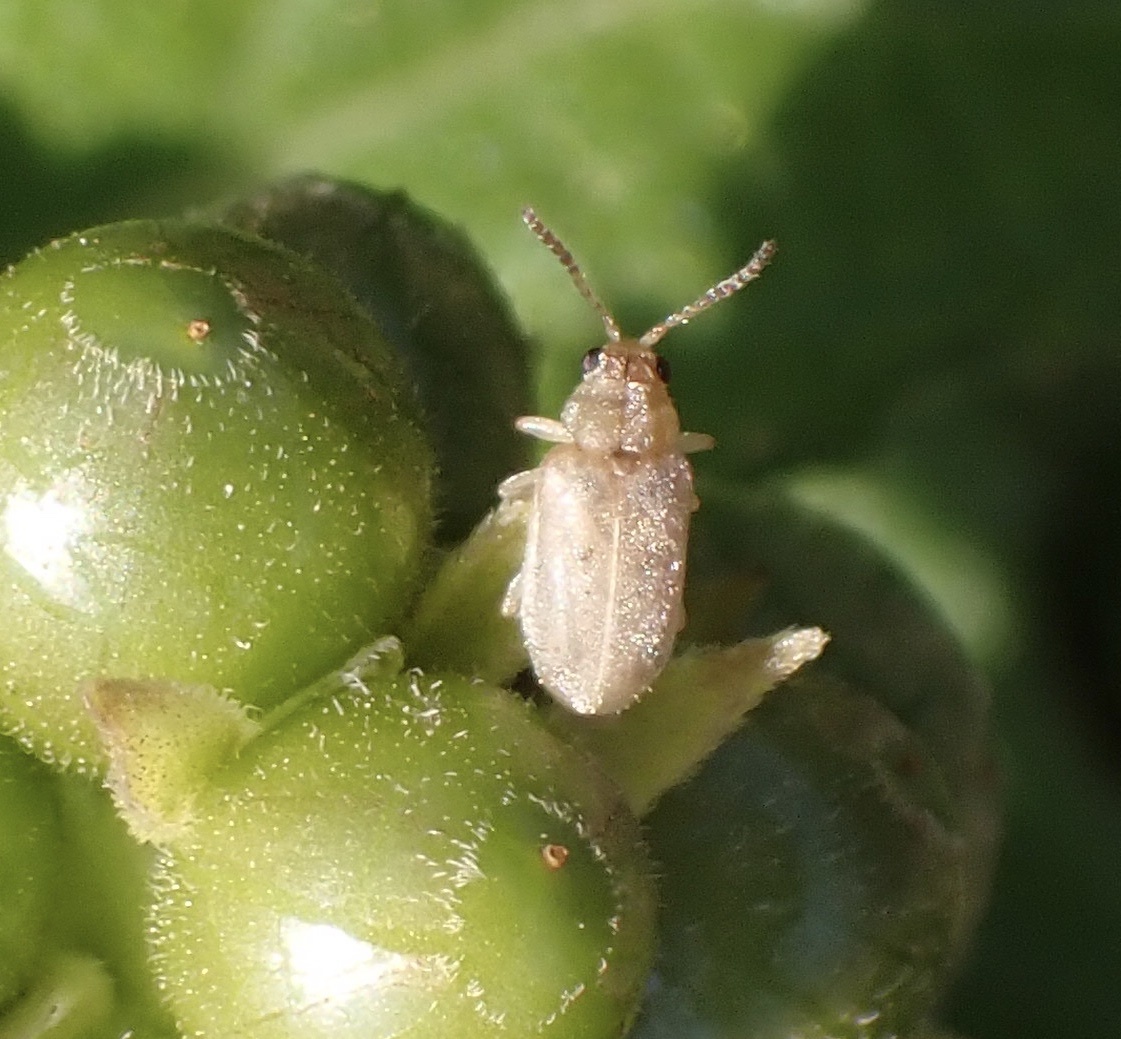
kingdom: Animalia
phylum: Arthropoda
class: Insecta
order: Coleoptera
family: Chrysomelidae
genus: Monoxia
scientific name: Monoxia obesula
